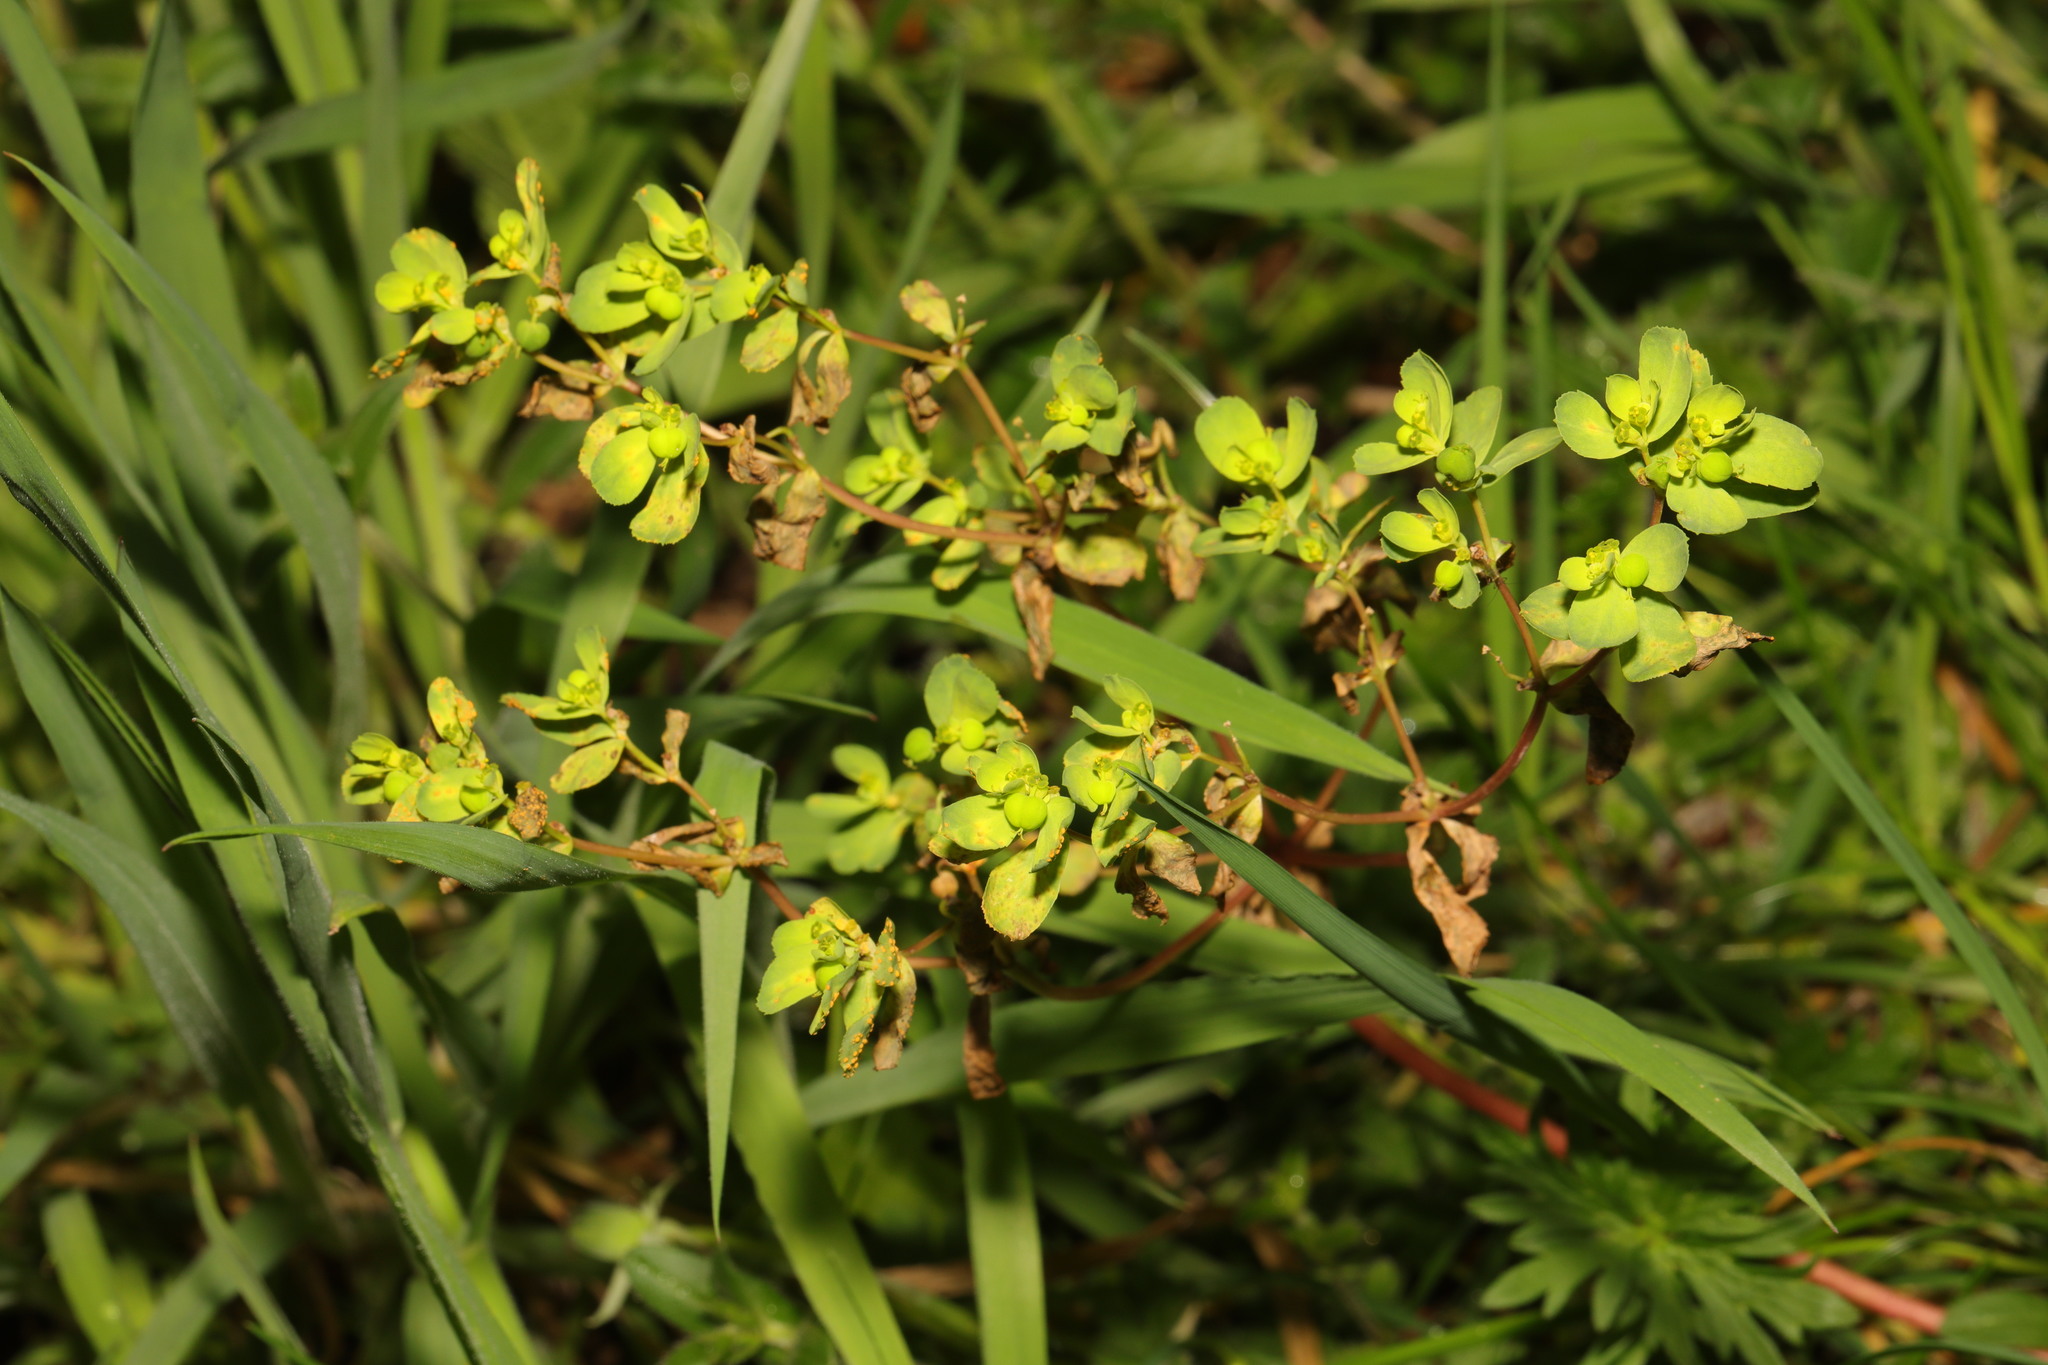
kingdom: Plantae
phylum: Tracheophyta
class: Magnoliopsida
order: Malpighiales
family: Euphorbiaceae
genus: Euphorbia
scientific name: Euphorbia helioscopia
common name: Sun spurge
